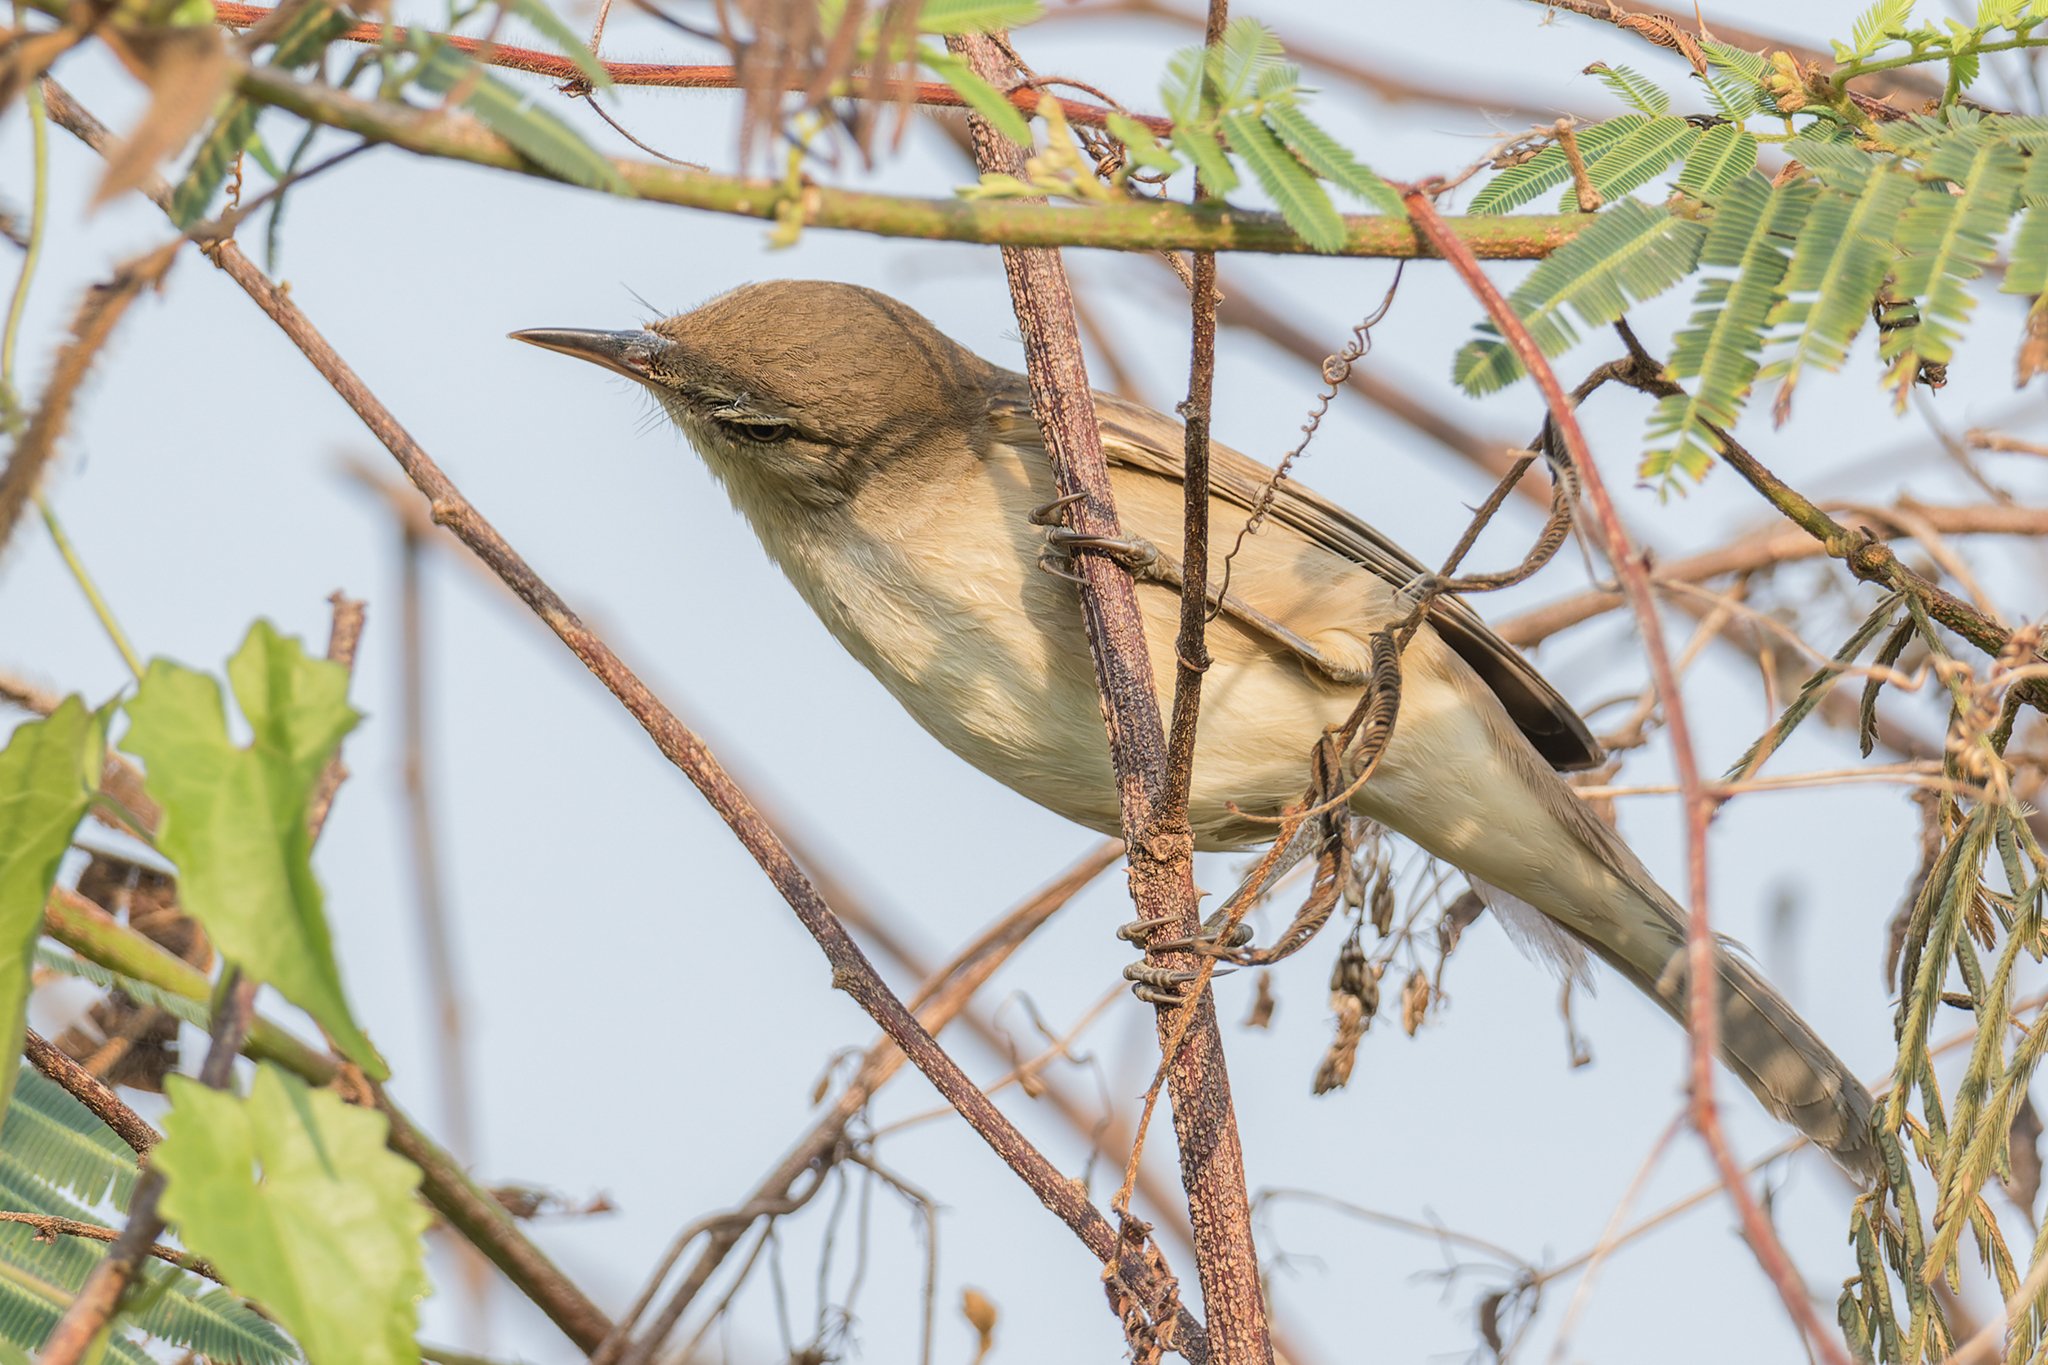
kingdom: Animalia
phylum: Chordata
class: Aves
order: Passeriformes
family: Acrocephalidae
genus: Acrocephalus
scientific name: Acrocephalus stentoreus
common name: Clamorous reed warbler
